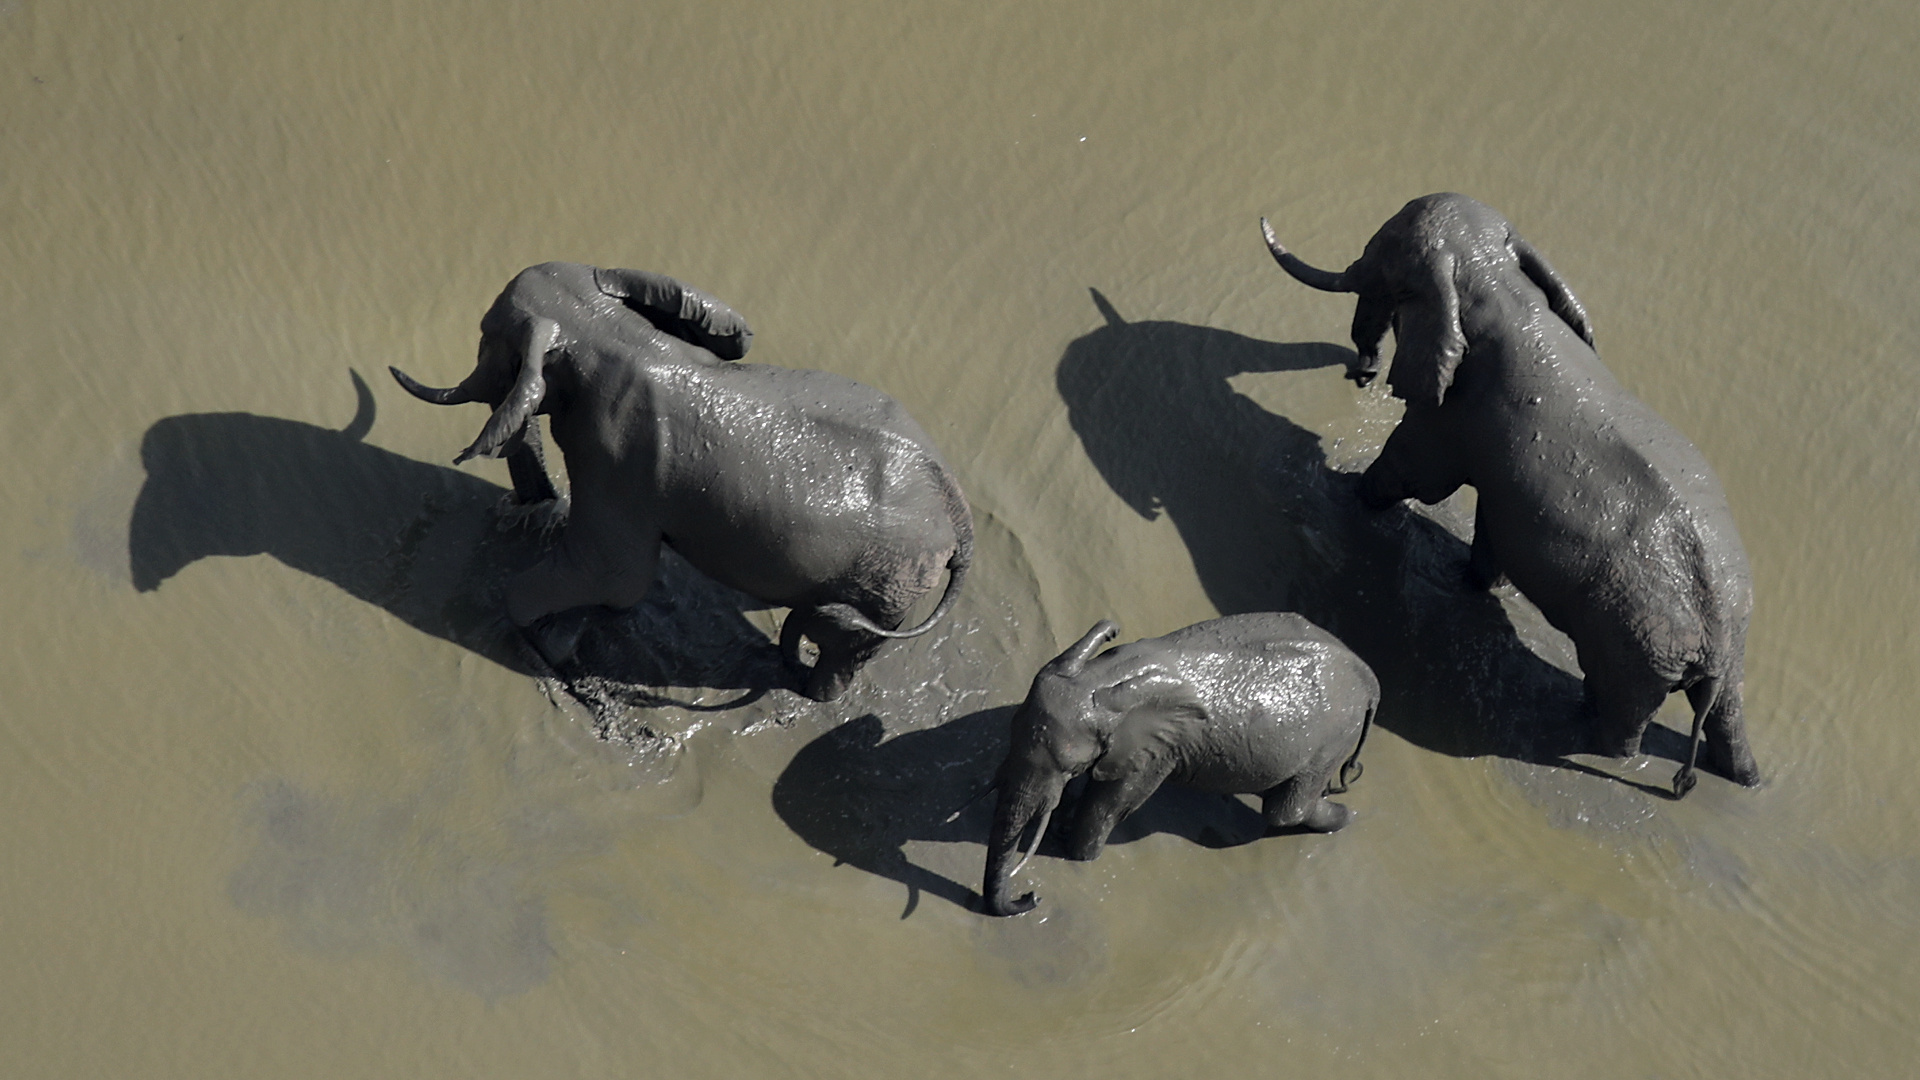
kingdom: Animalia
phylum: Chordata
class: Mammalia
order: Proboscidea
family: Elephantidae
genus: Loxodonta
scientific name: Loxodonta africana
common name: African elephant
